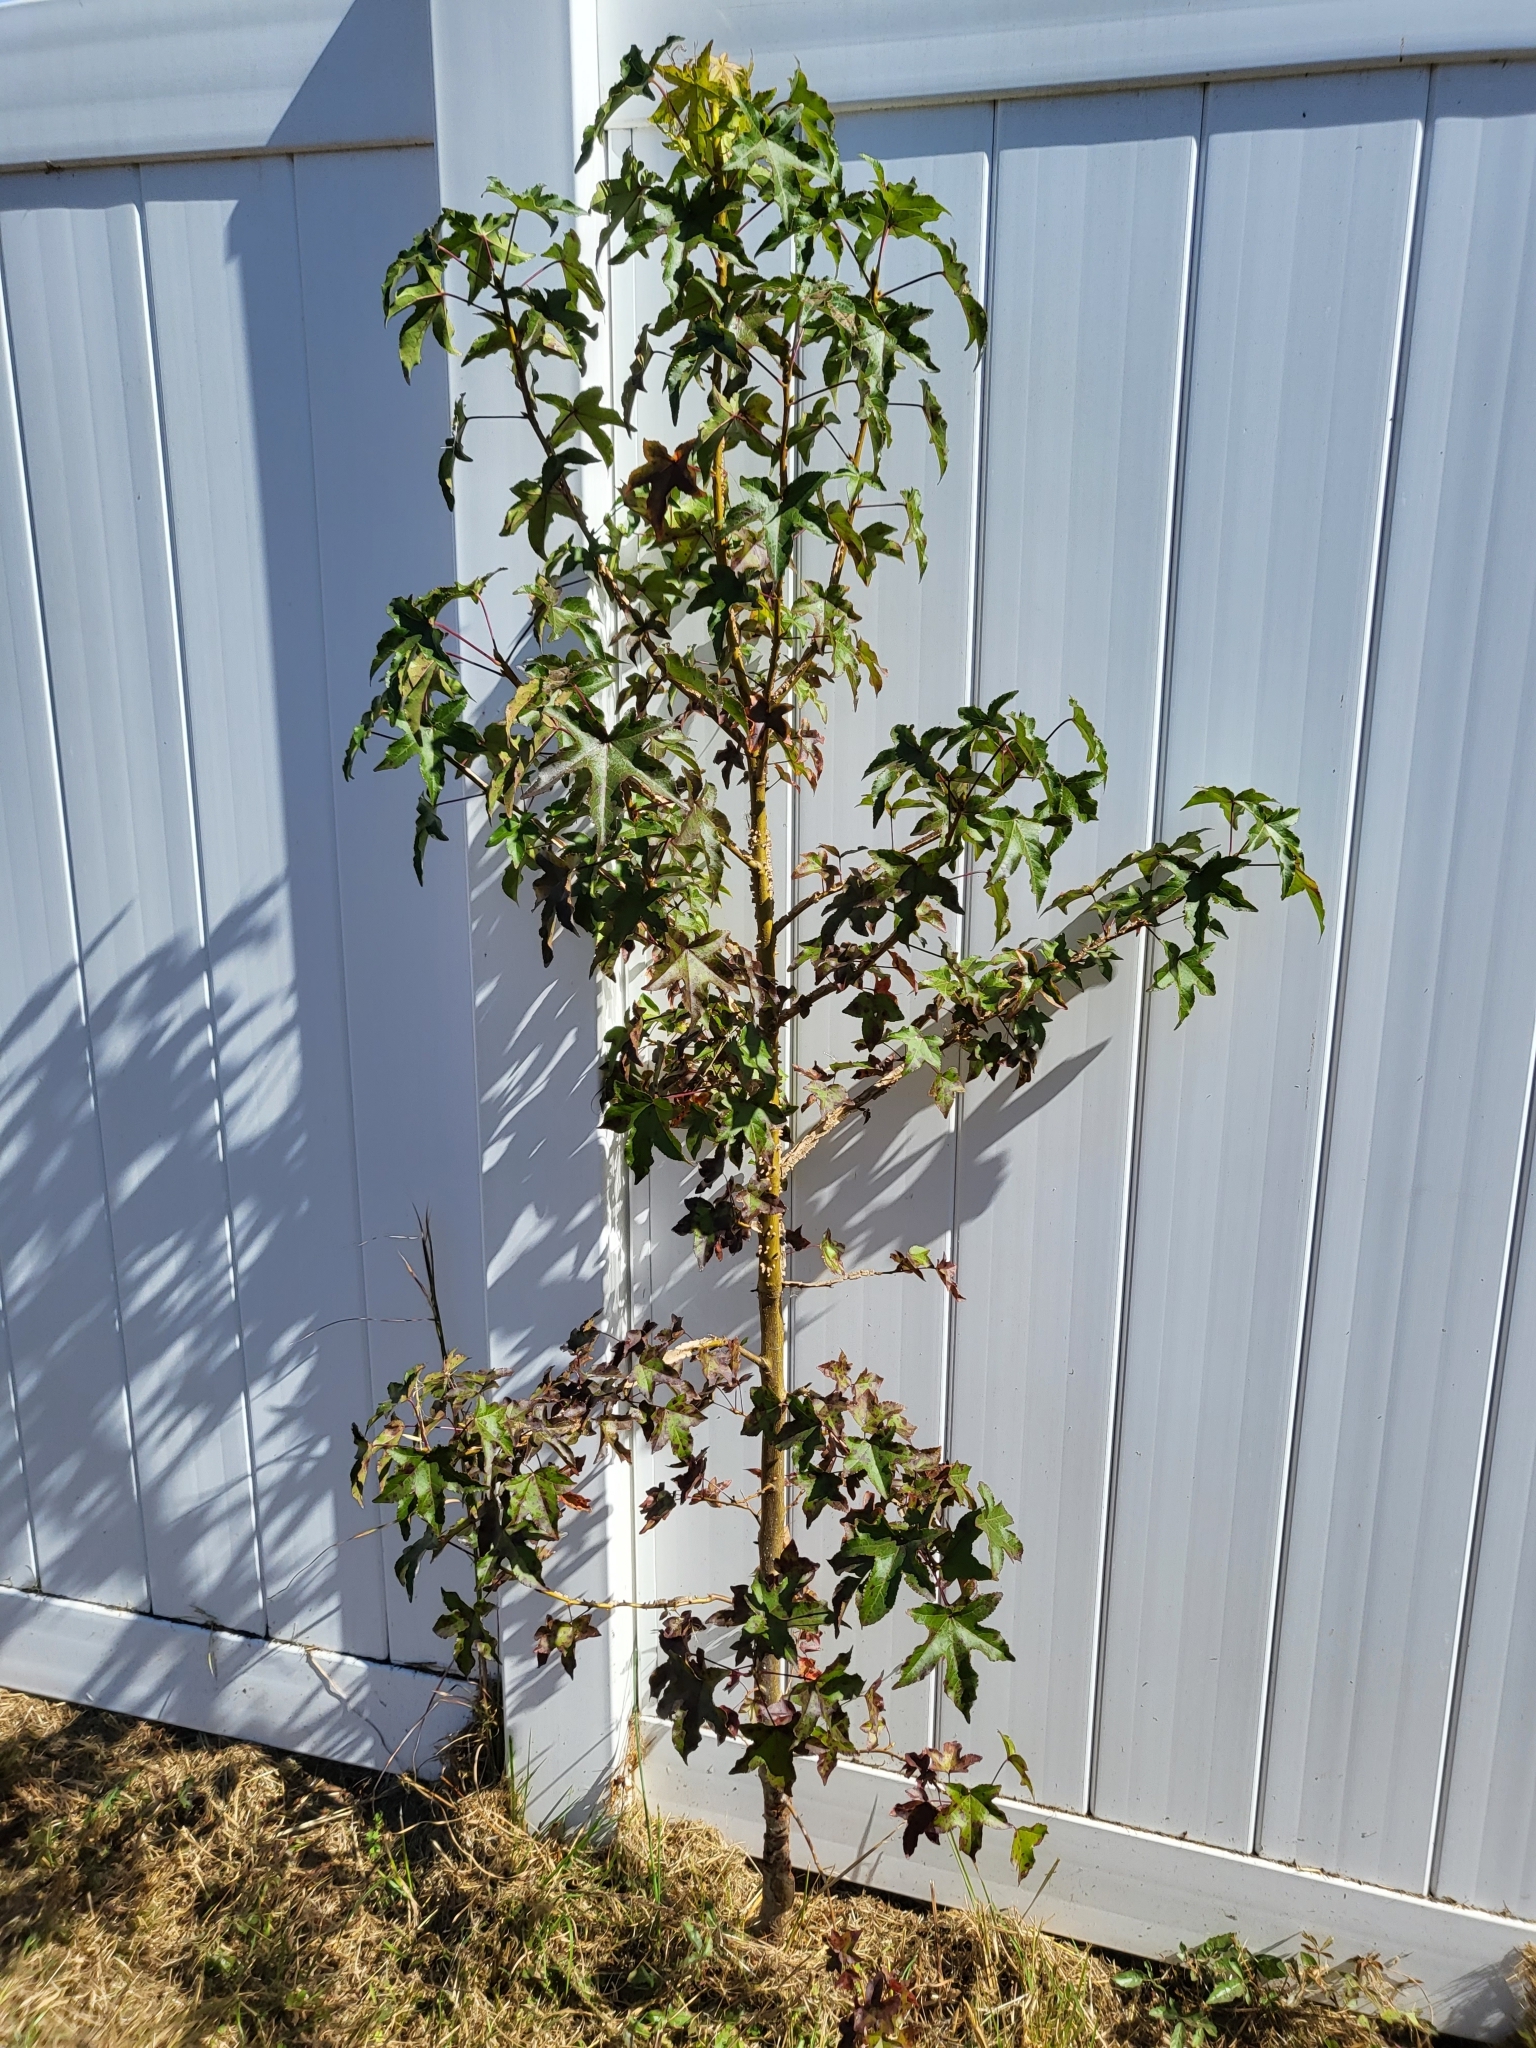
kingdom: Plantae
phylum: Tracheophyta
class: Magnoliopsida
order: Saxifragales
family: Altingiaceae
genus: Liquidambar
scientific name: Liquidambar styraciflua
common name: Sweet gum
